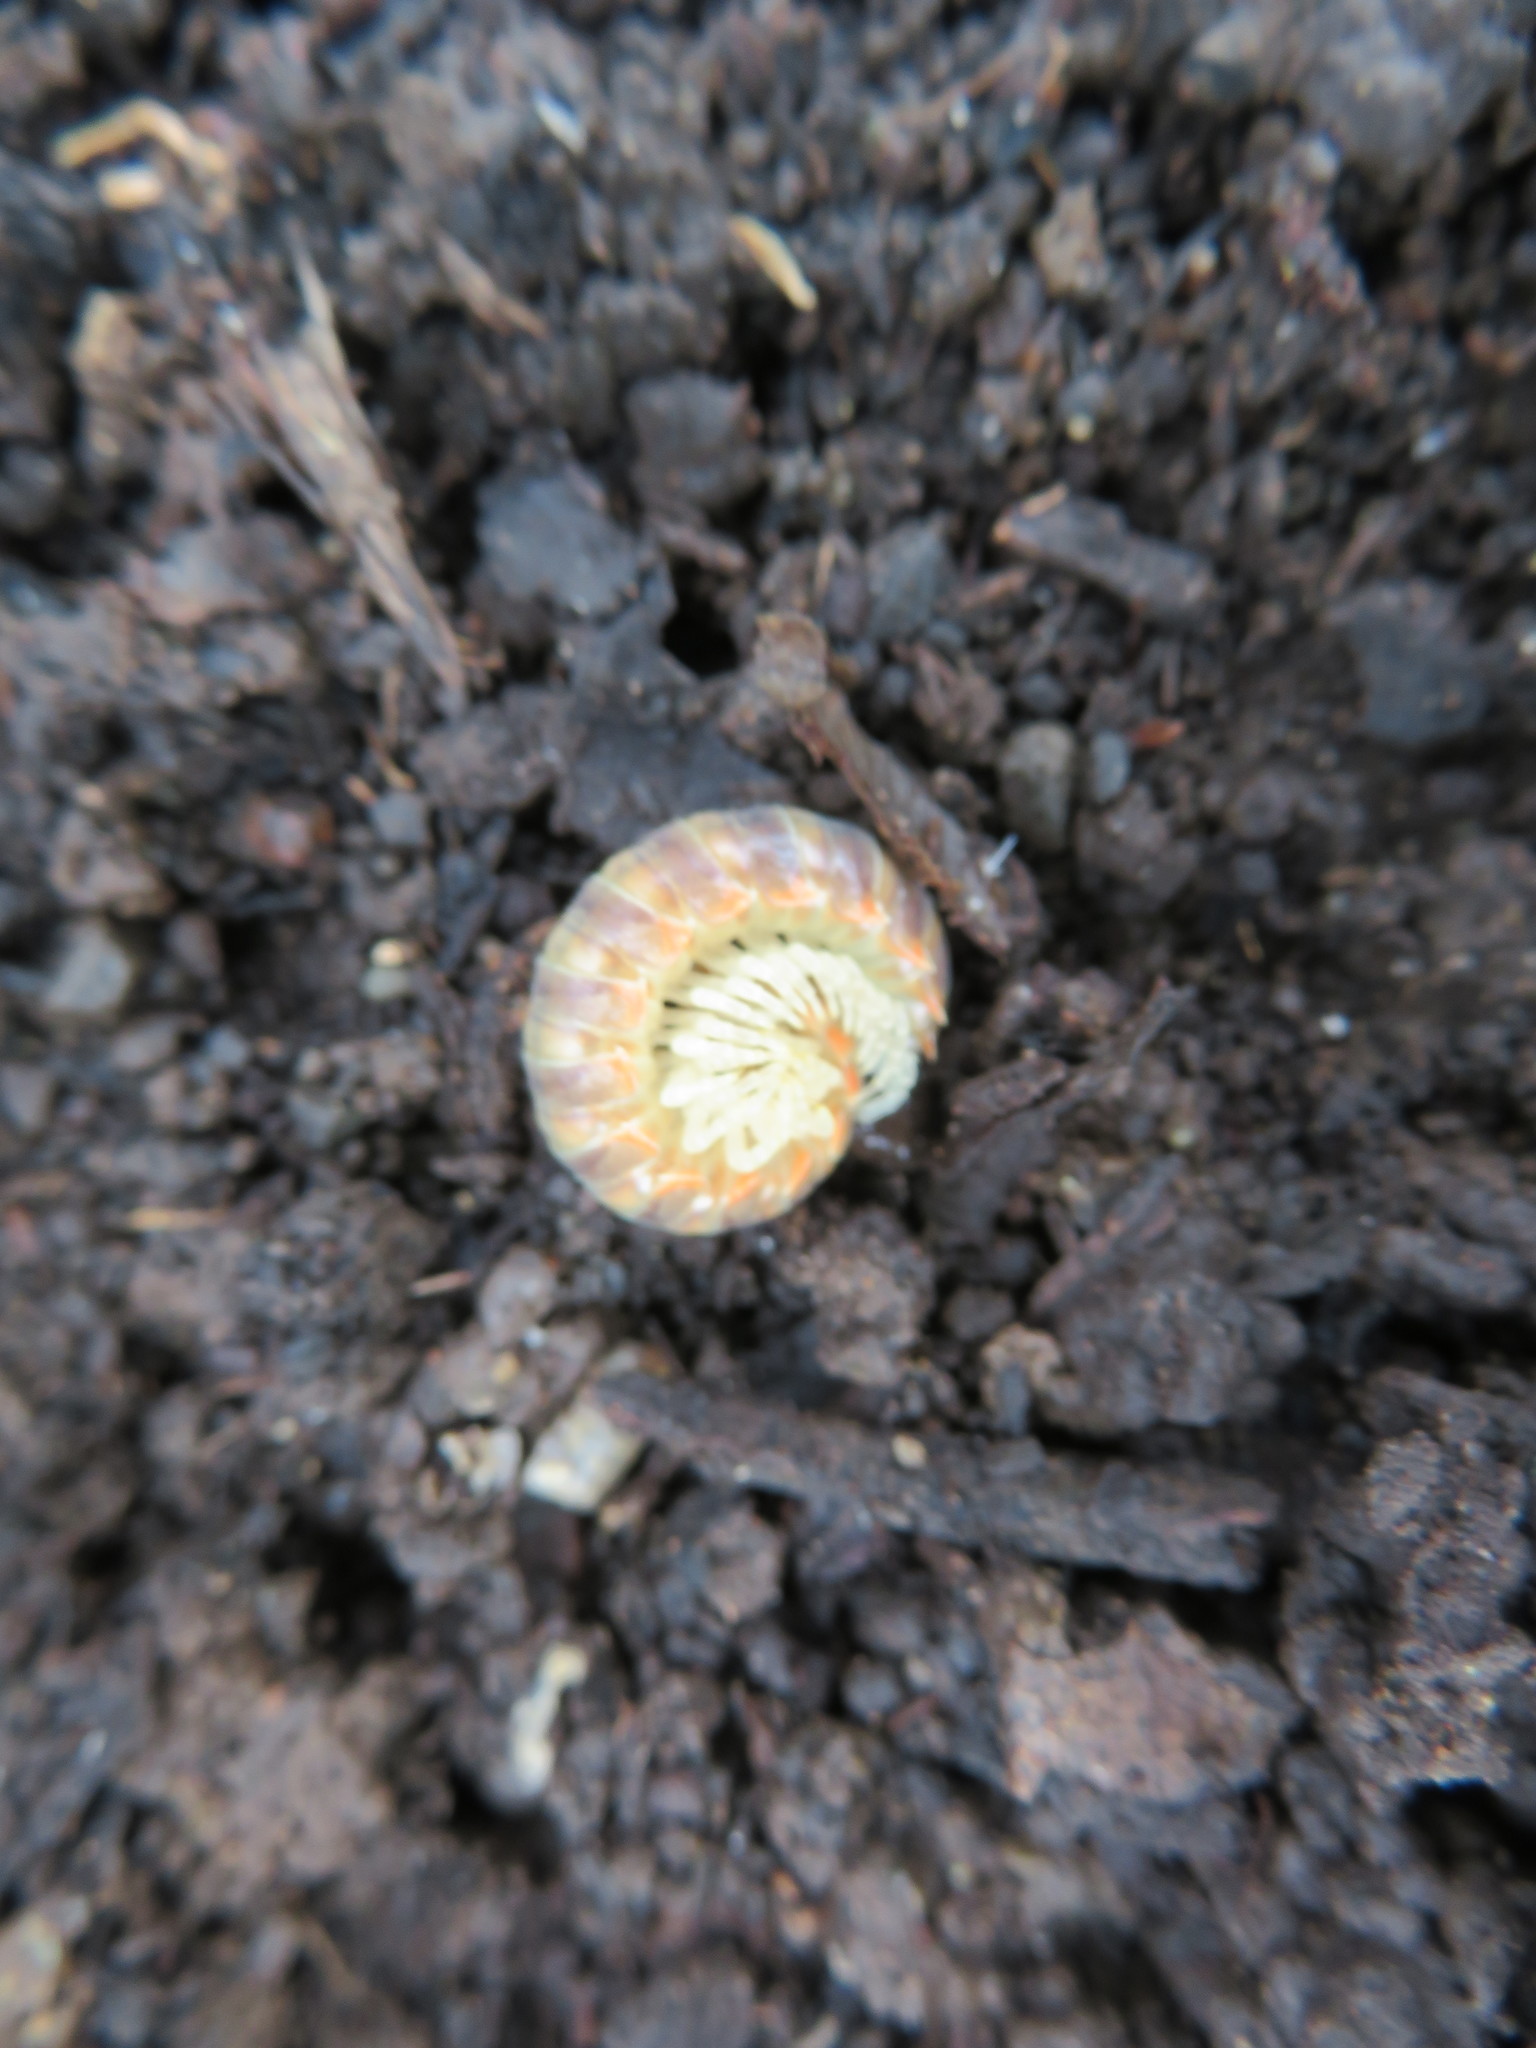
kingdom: Animalia
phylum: Arthropoda
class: Diplopoda
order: Polydesmida
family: Xystodesmidae
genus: Xystocheir
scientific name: Xystocheir dissecta
